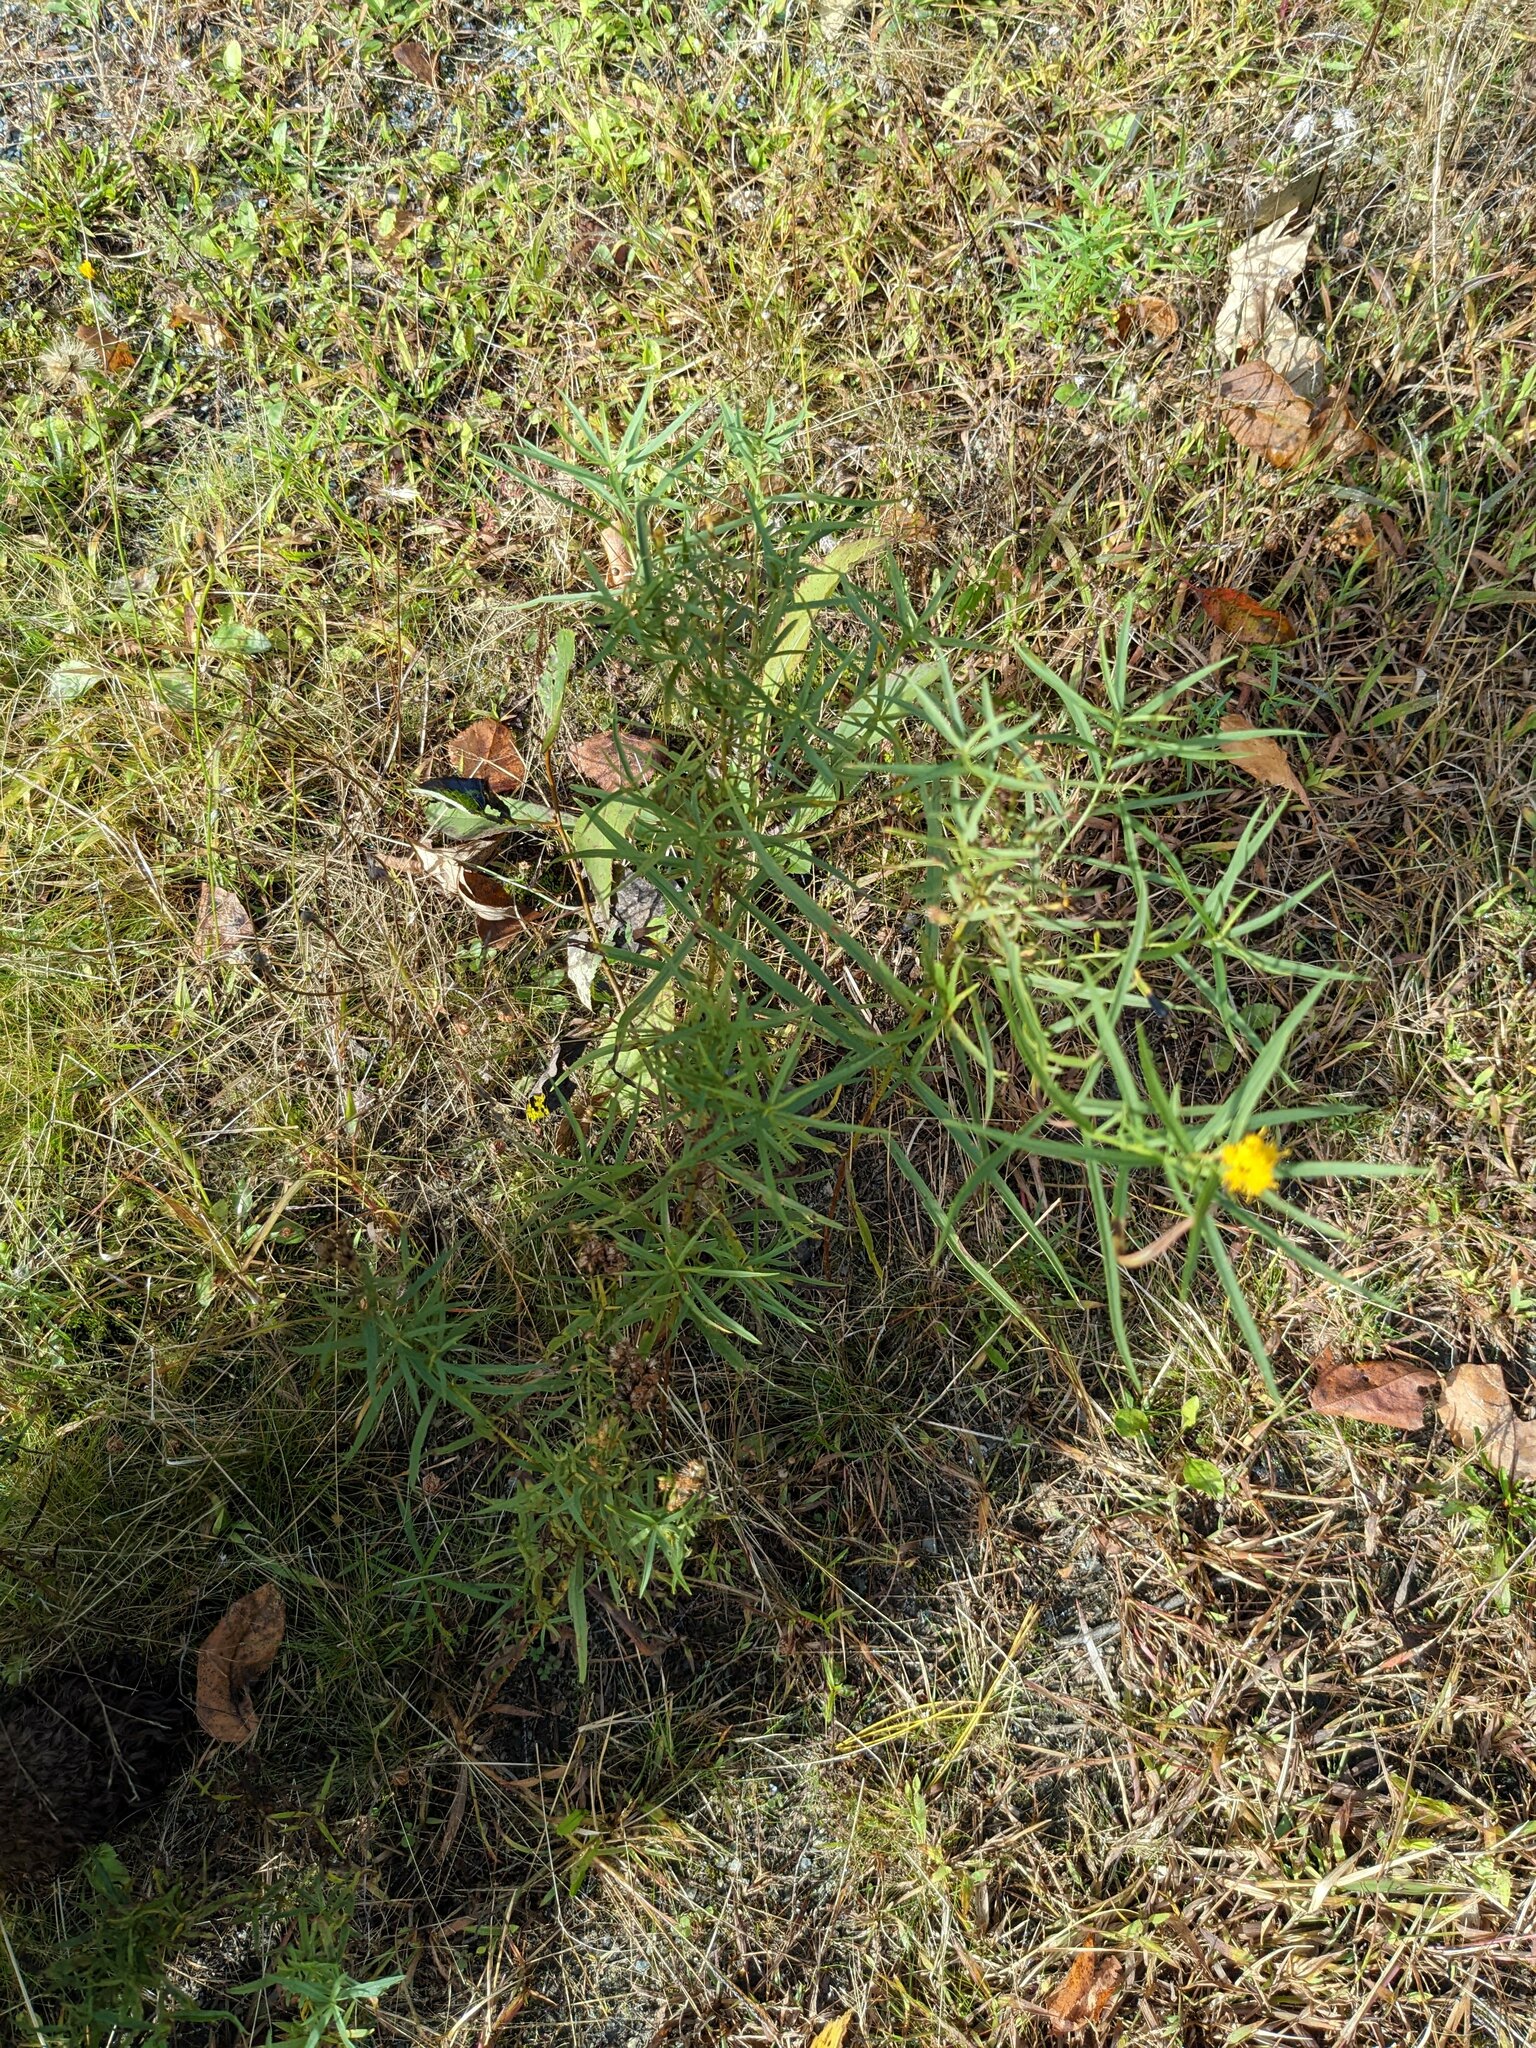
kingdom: Plantae
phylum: Tracheophyta
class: Magnoliopsida
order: Asterales
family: Asteraceae
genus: Euthamia
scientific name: Euthamia graminifolia
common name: Common goldentop
